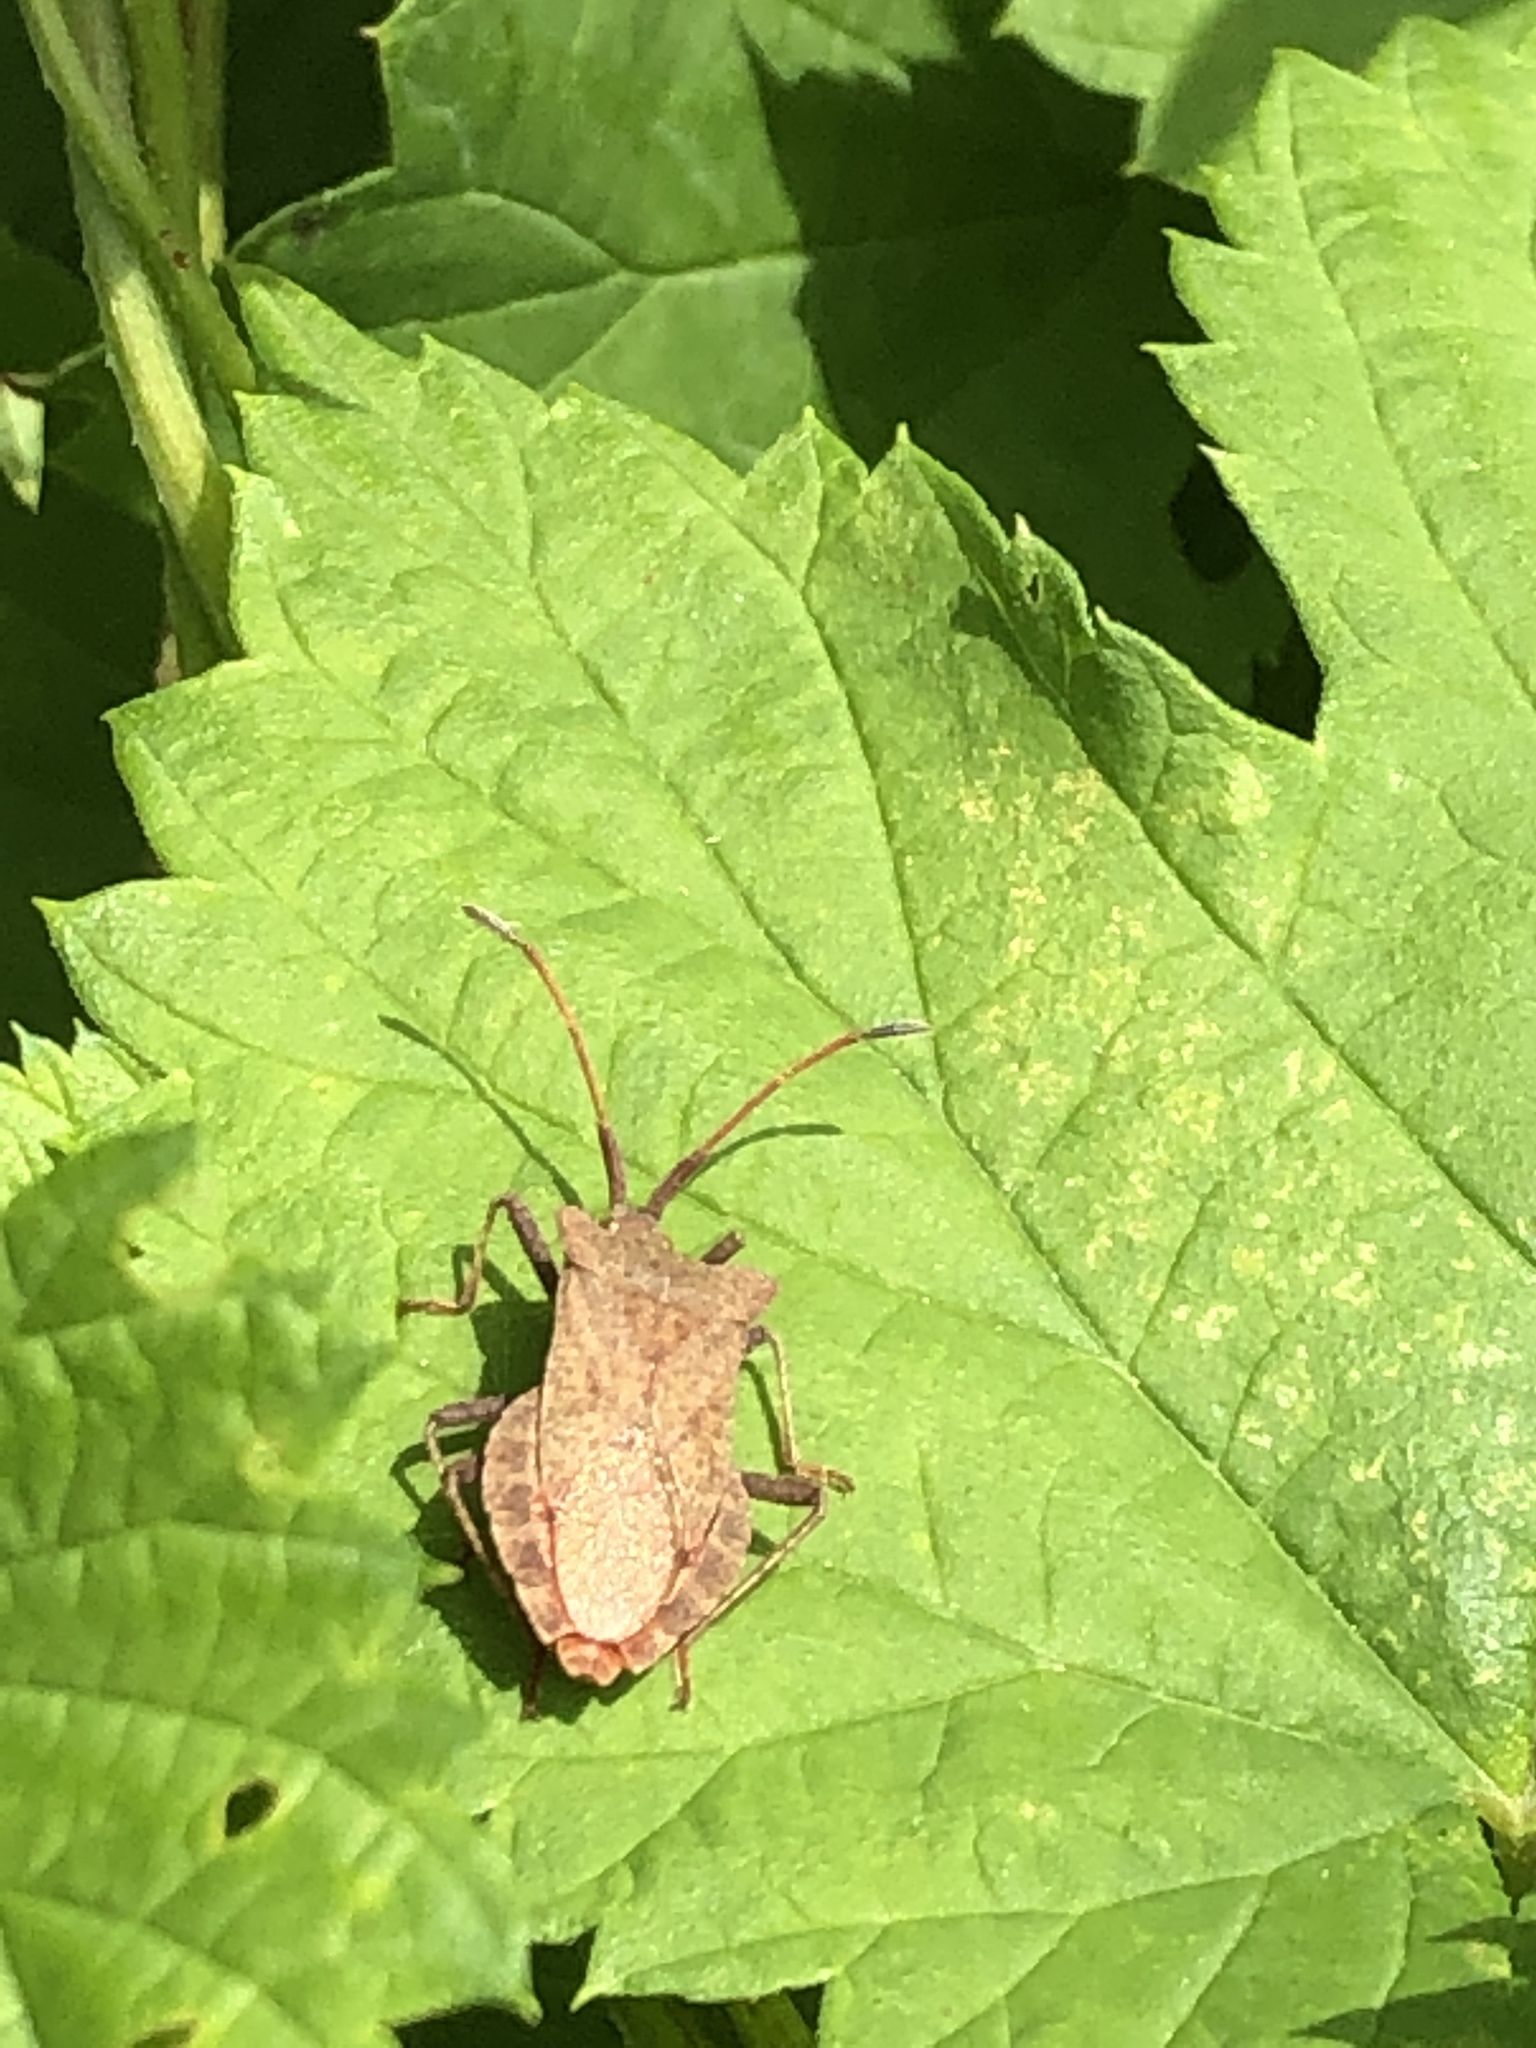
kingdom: Animalia
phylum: Arthropoda
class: Insecta
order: Hemiptera
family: Coreidae
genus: Coreus
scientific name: Coreus marginatus
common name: Dock bug
